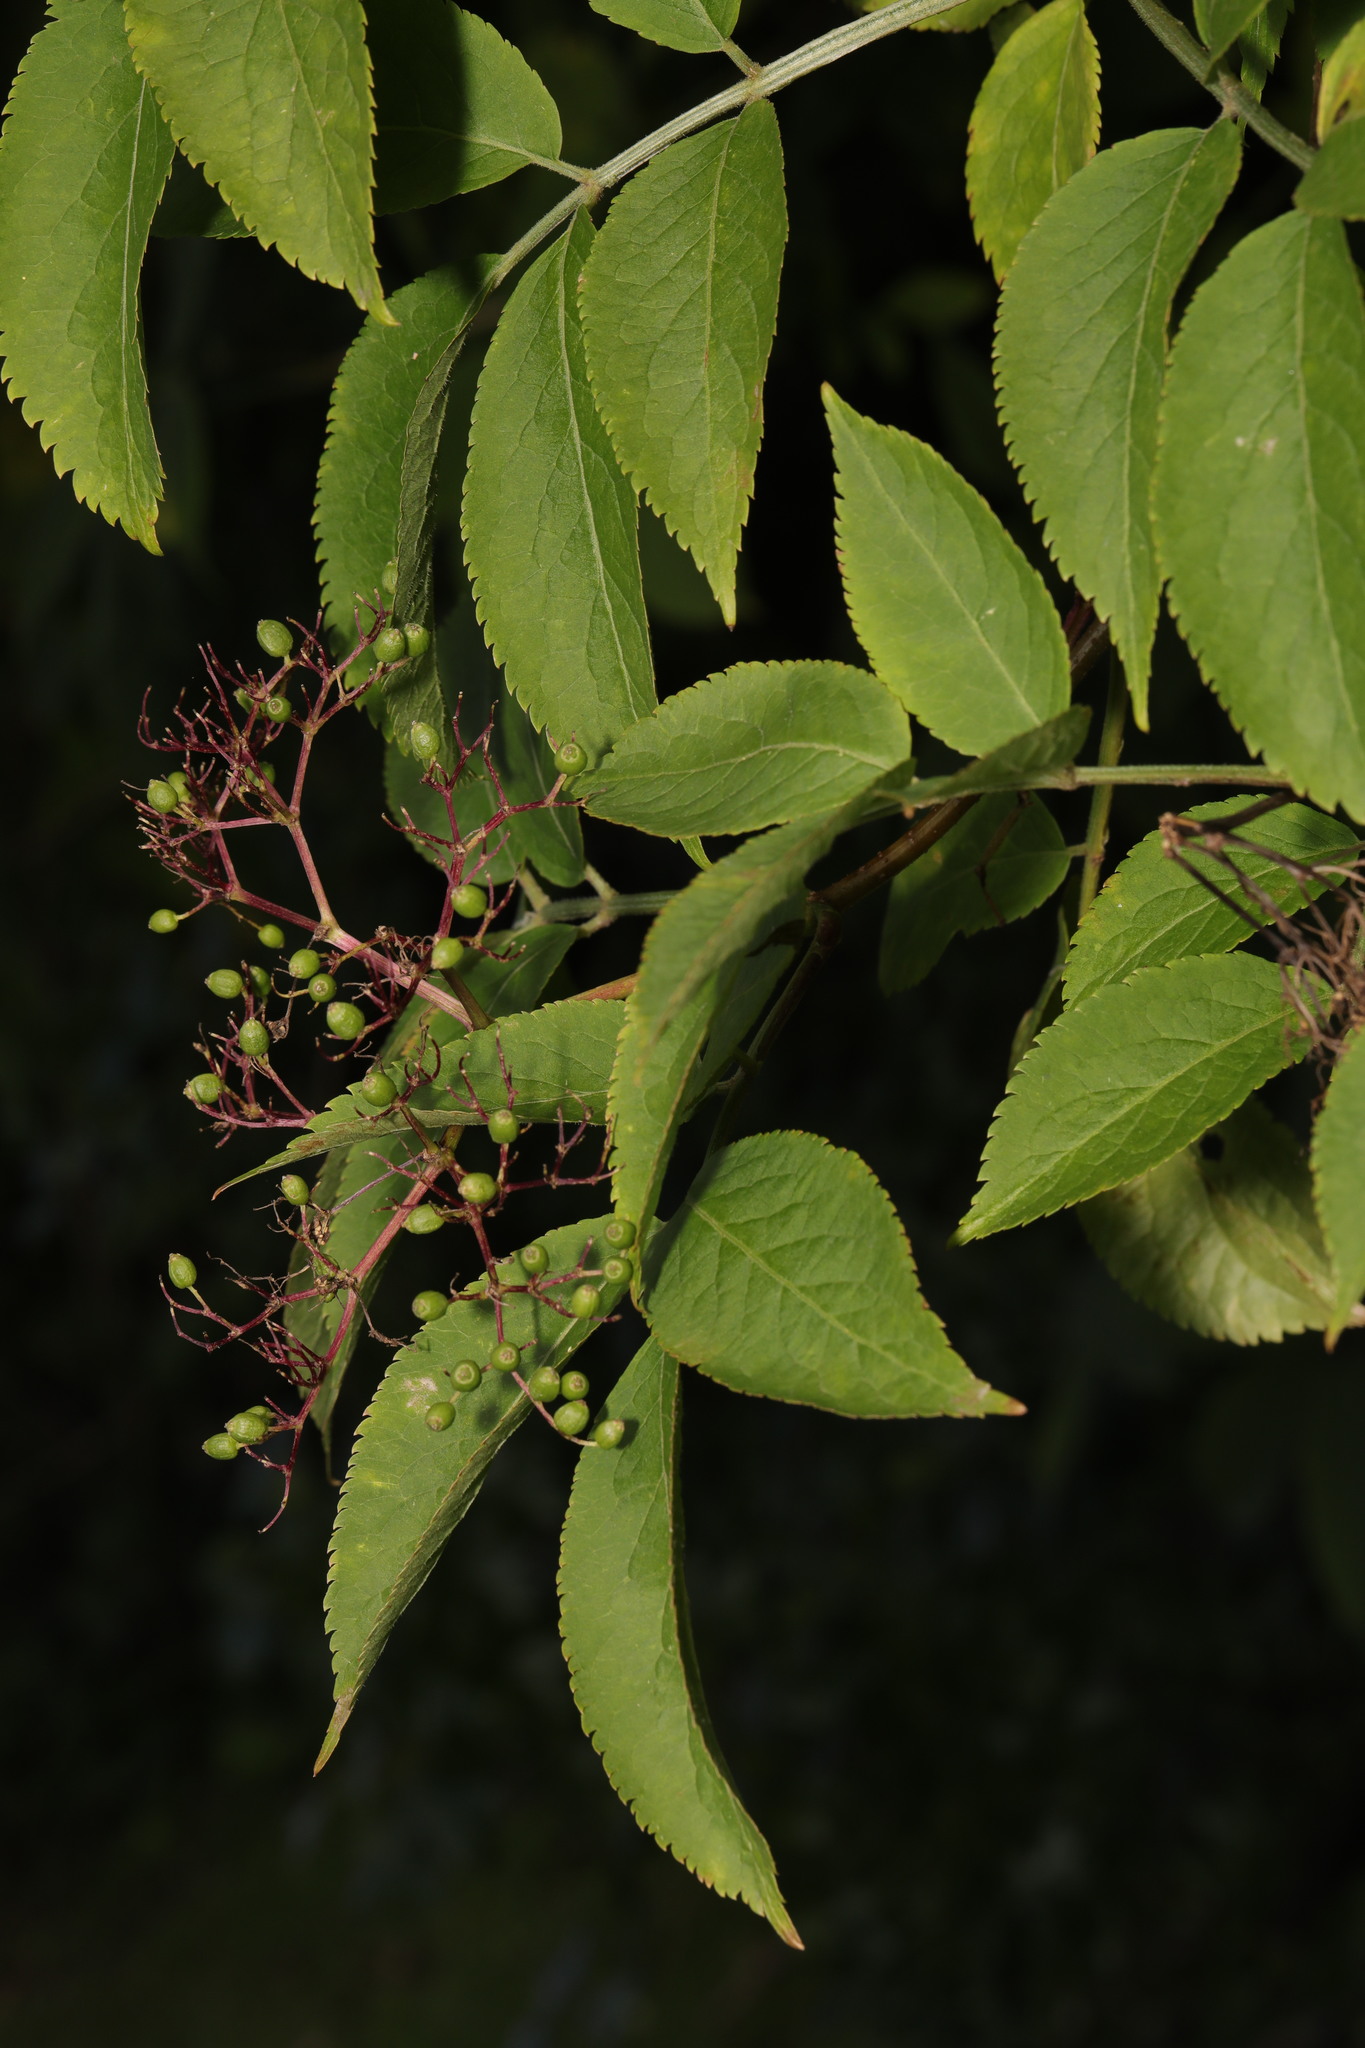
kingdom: Plantae
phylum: Tracheophyta
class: Magnoliopsida
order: Dipsacales
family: Viburnaceae
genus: Sambucus
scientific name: Sambucus nigra
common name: Elder
